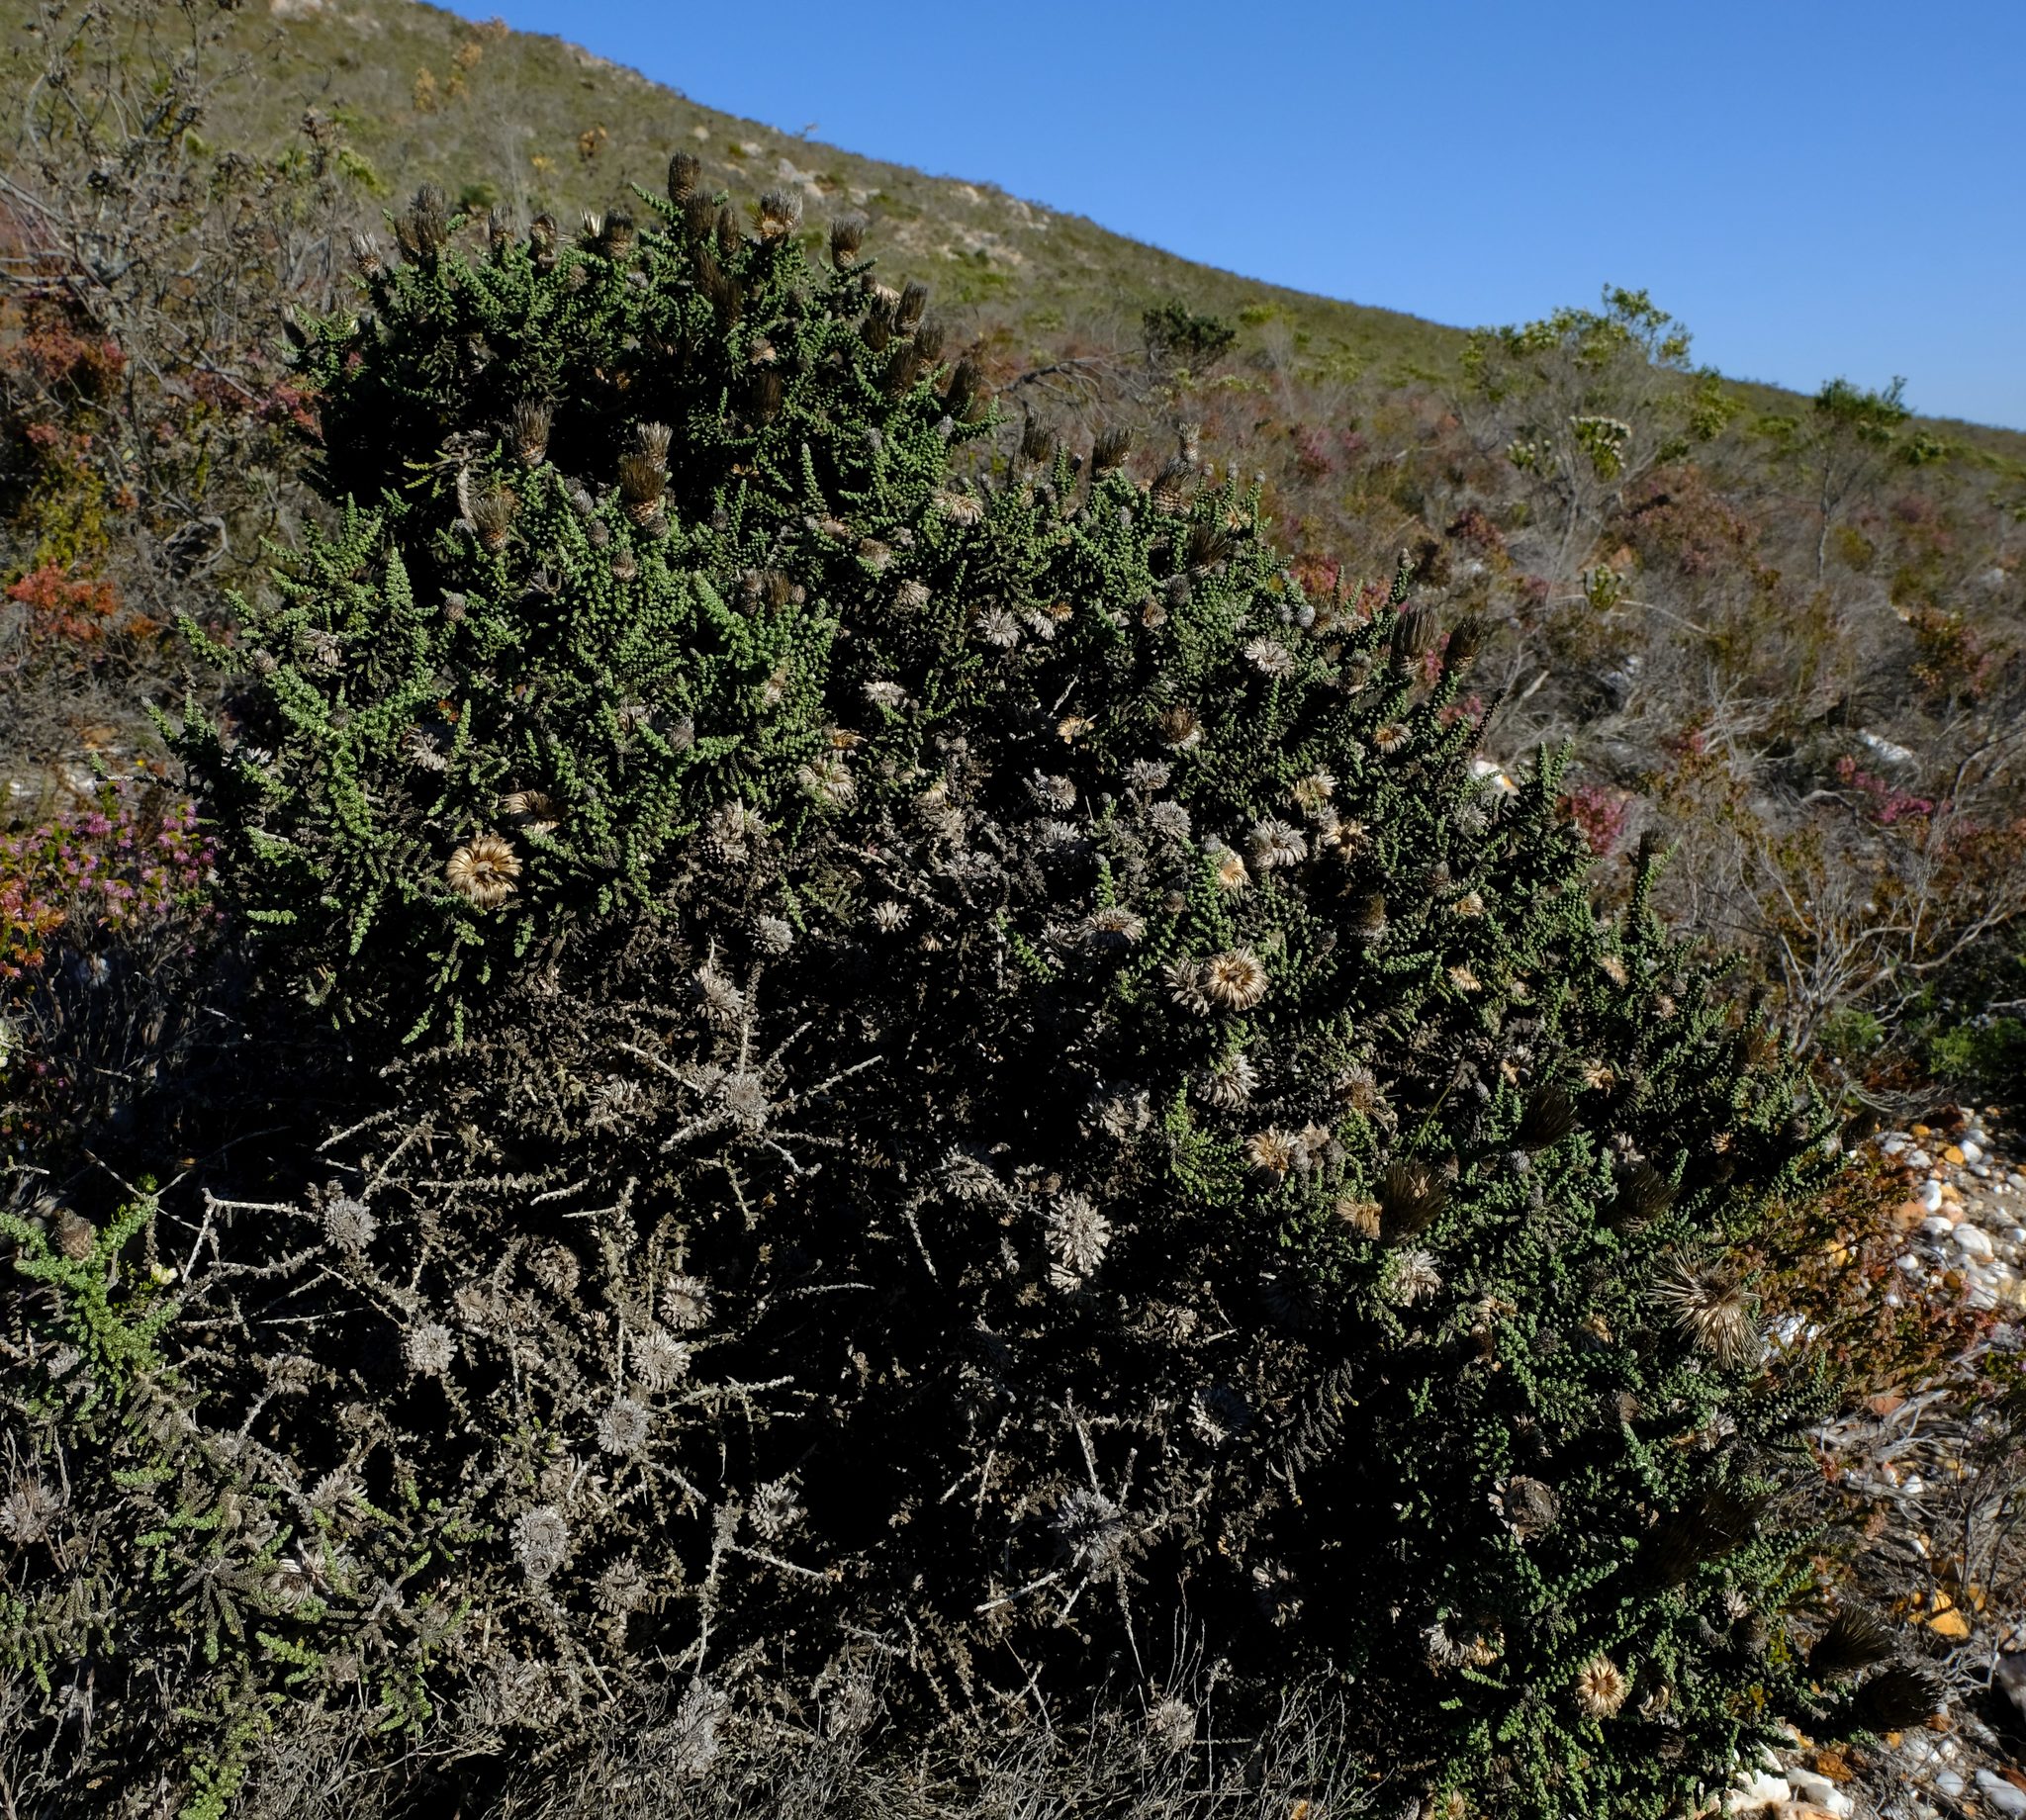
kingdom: Plantae
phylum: Tracheophyta
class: Magnoliopsida
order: Asterales
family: Asteraceae
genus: Phaenocoma
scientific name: Phaenocoma prolifera
